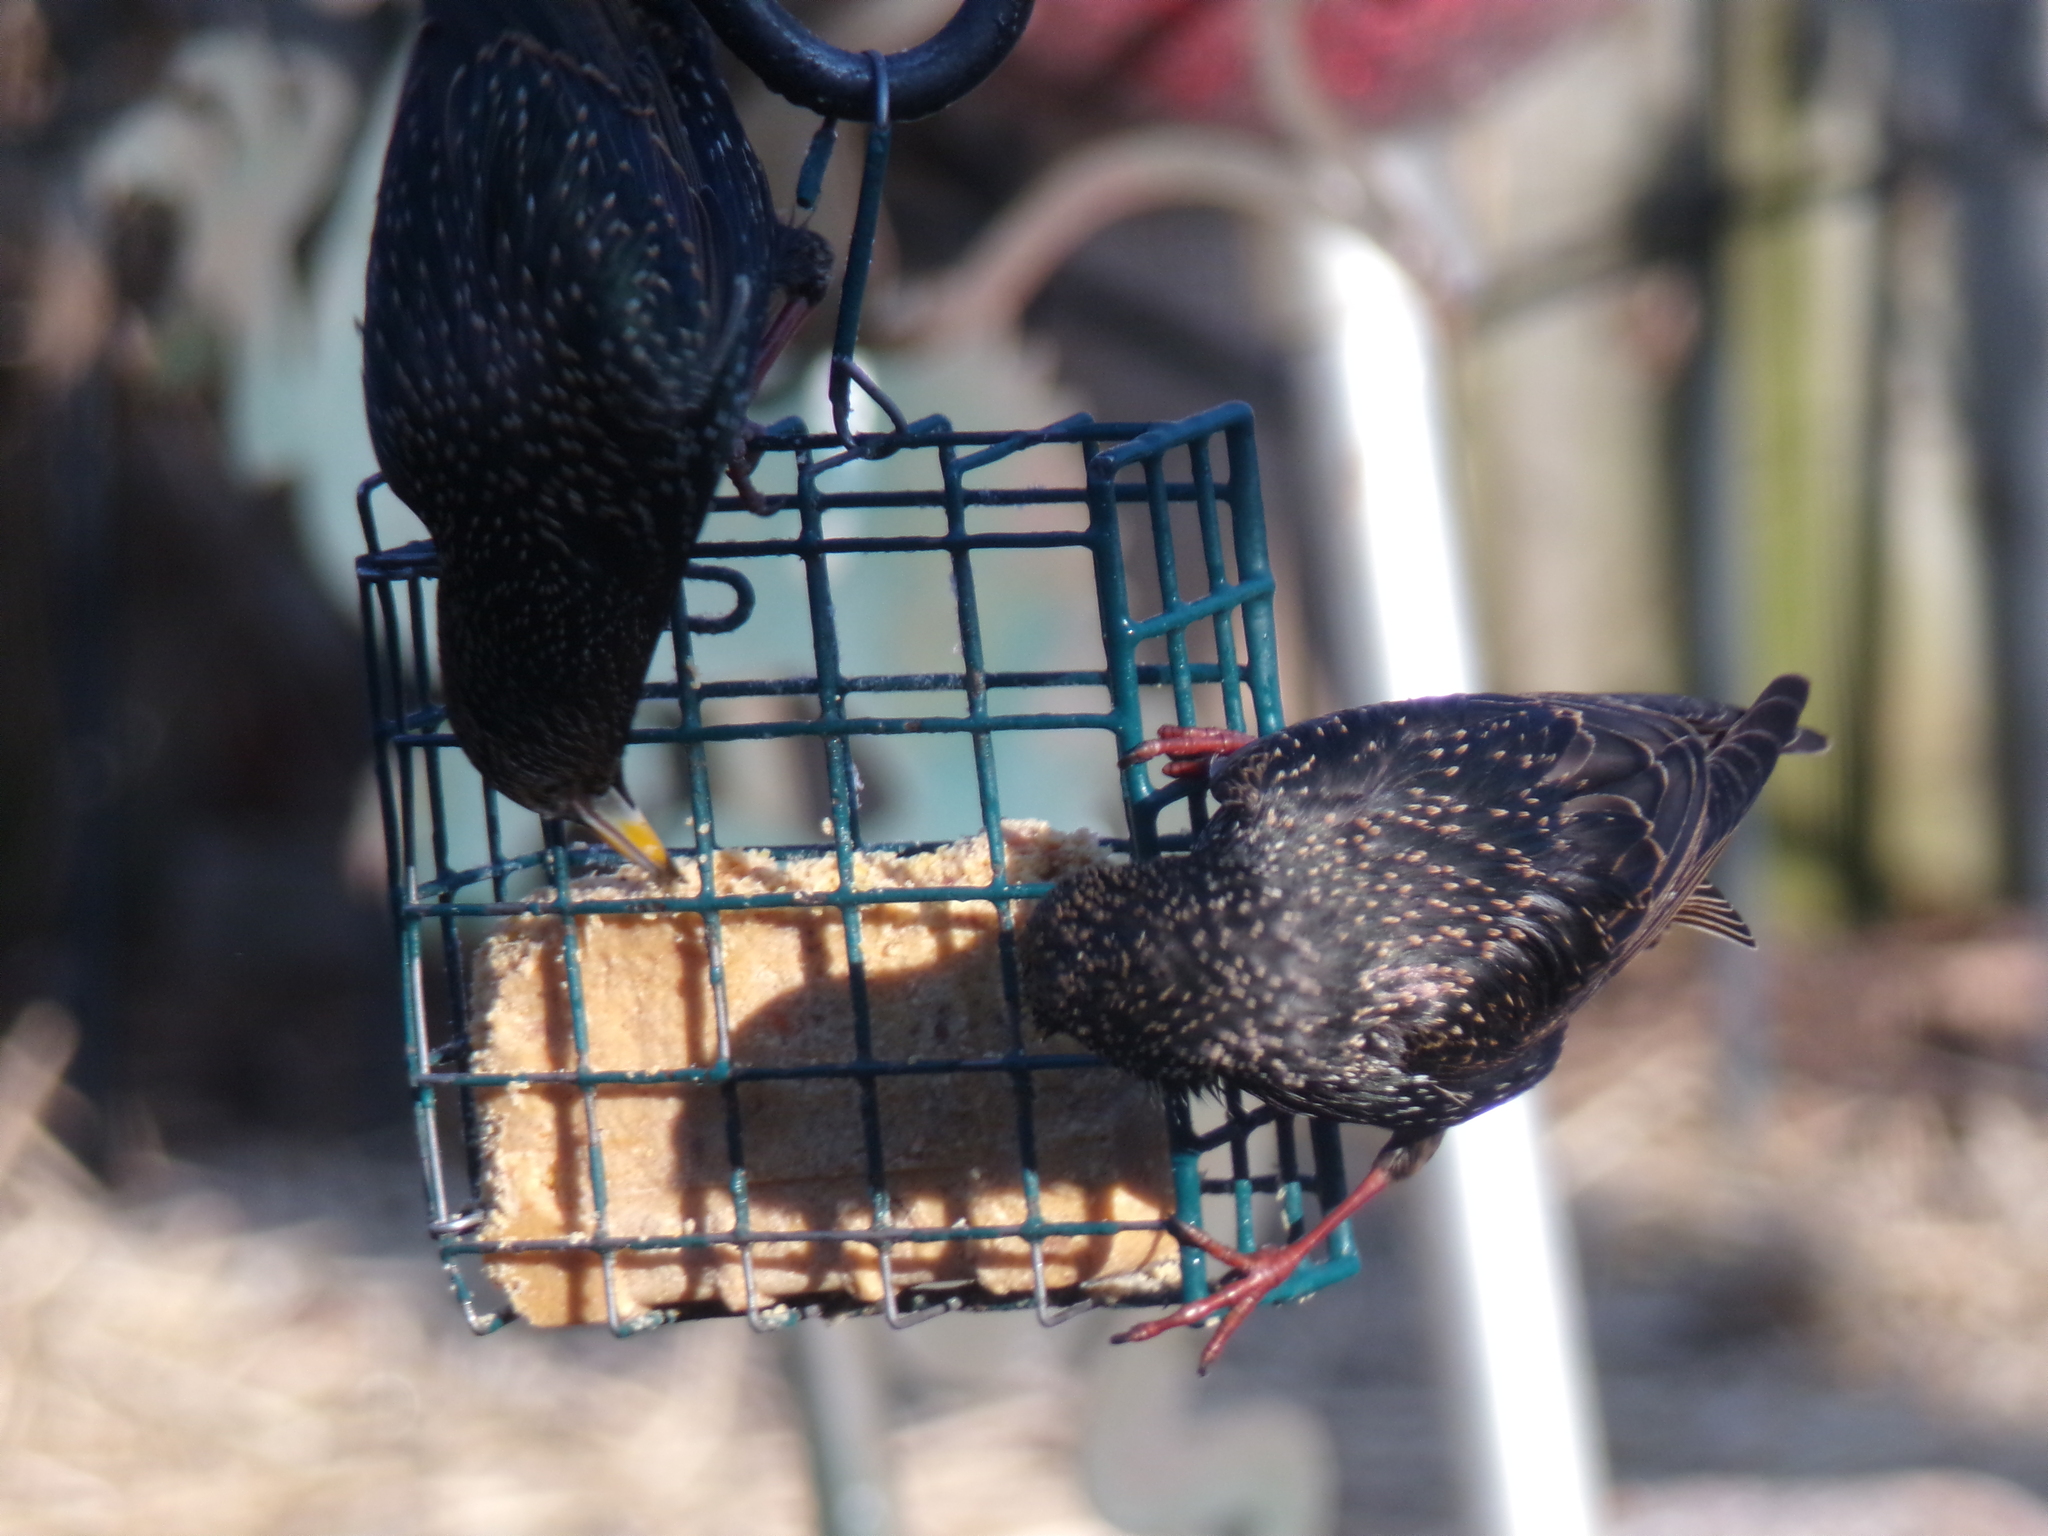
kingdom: Animalia
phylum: Chordata
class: Aves
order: Passeriformes
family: Sturnidae
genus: Sturnus
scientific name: Sturnus vulgaris
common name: Common starling
